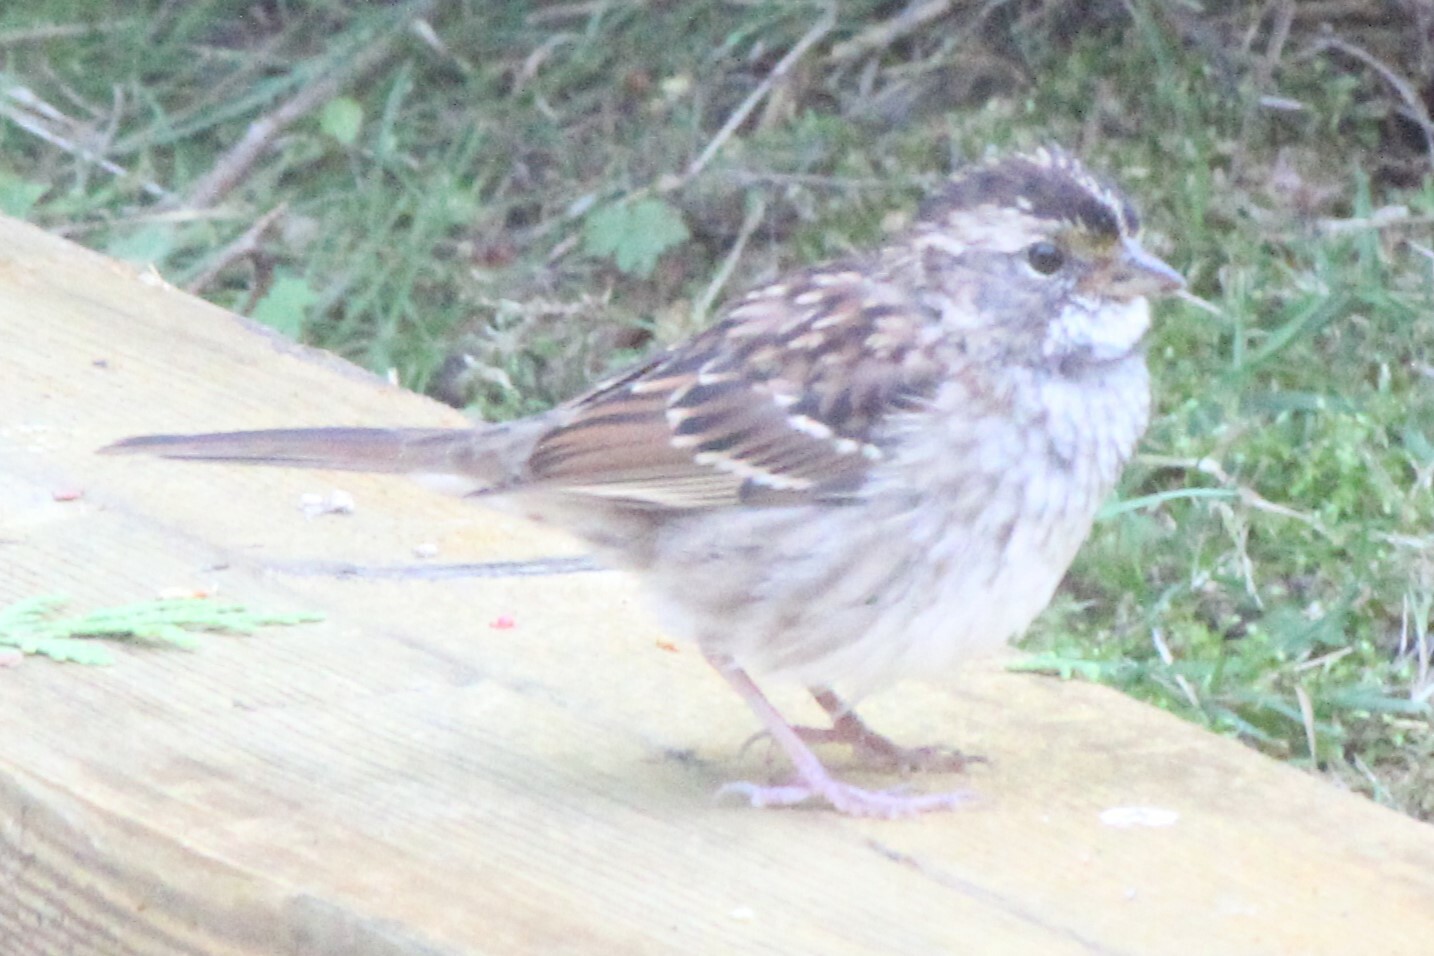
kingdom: Animalia
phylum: Chordata
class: Aves
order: Passeriformes
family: Passerellidae
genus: Zonotrichia
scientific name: Zonotrichia albicollis
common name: White-throated sparrow
